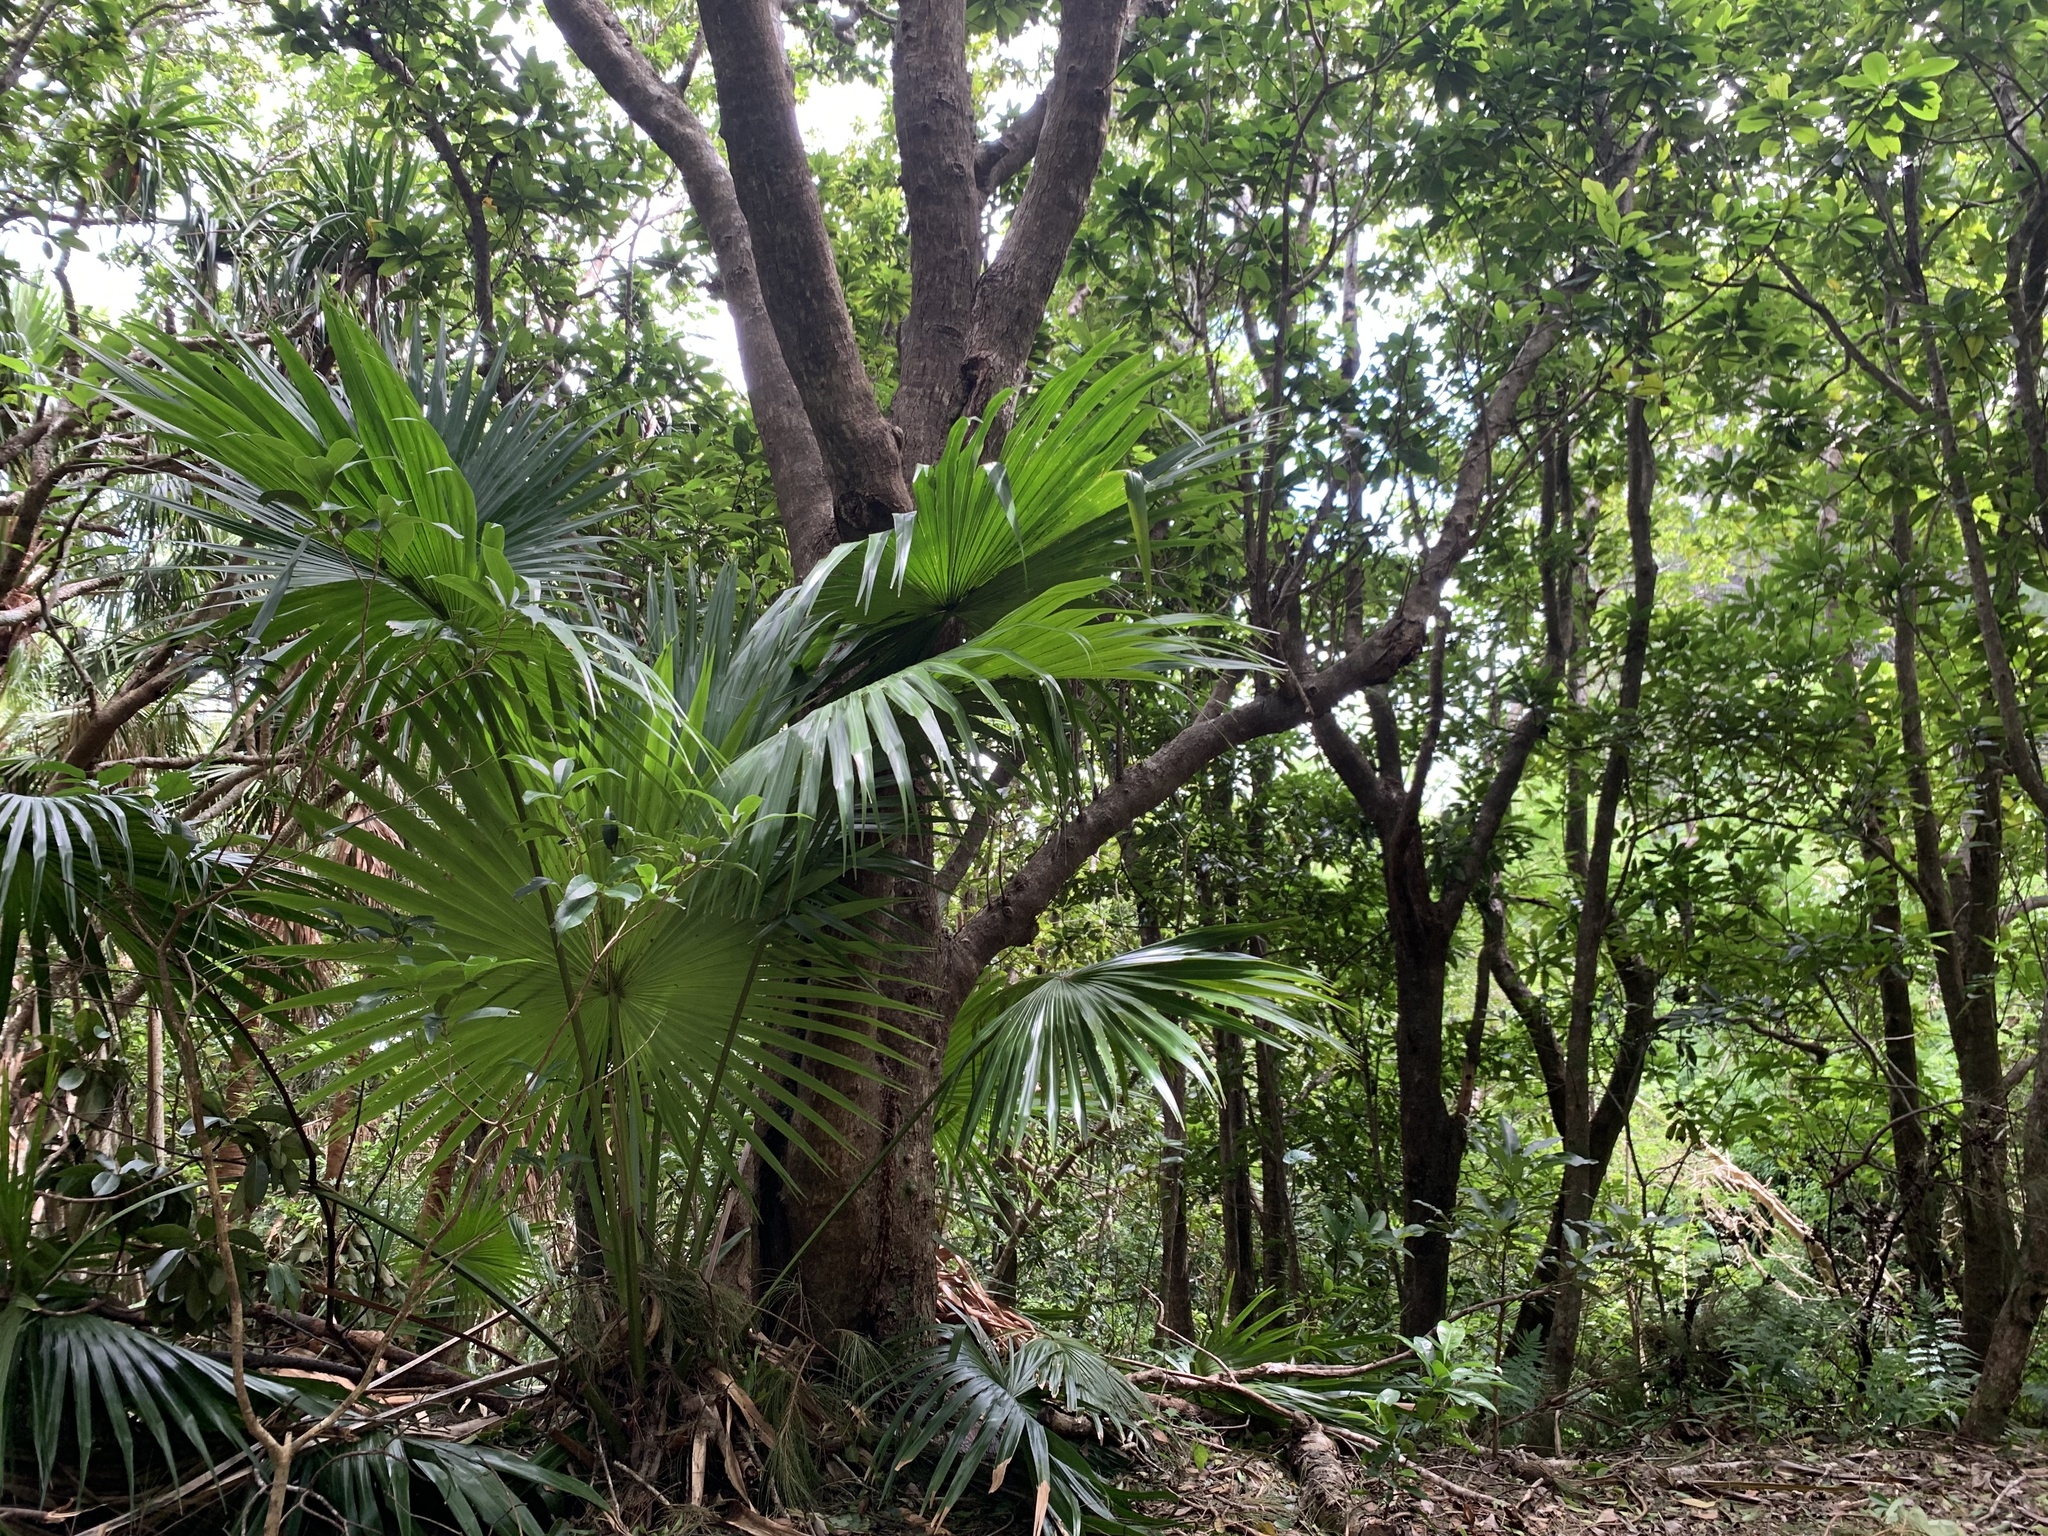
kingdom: Animalia
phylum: Arthropoda
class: Insecta
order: Hemiptera
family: Cicadidae
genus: Meimuna
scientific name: Meimuna boninensis
